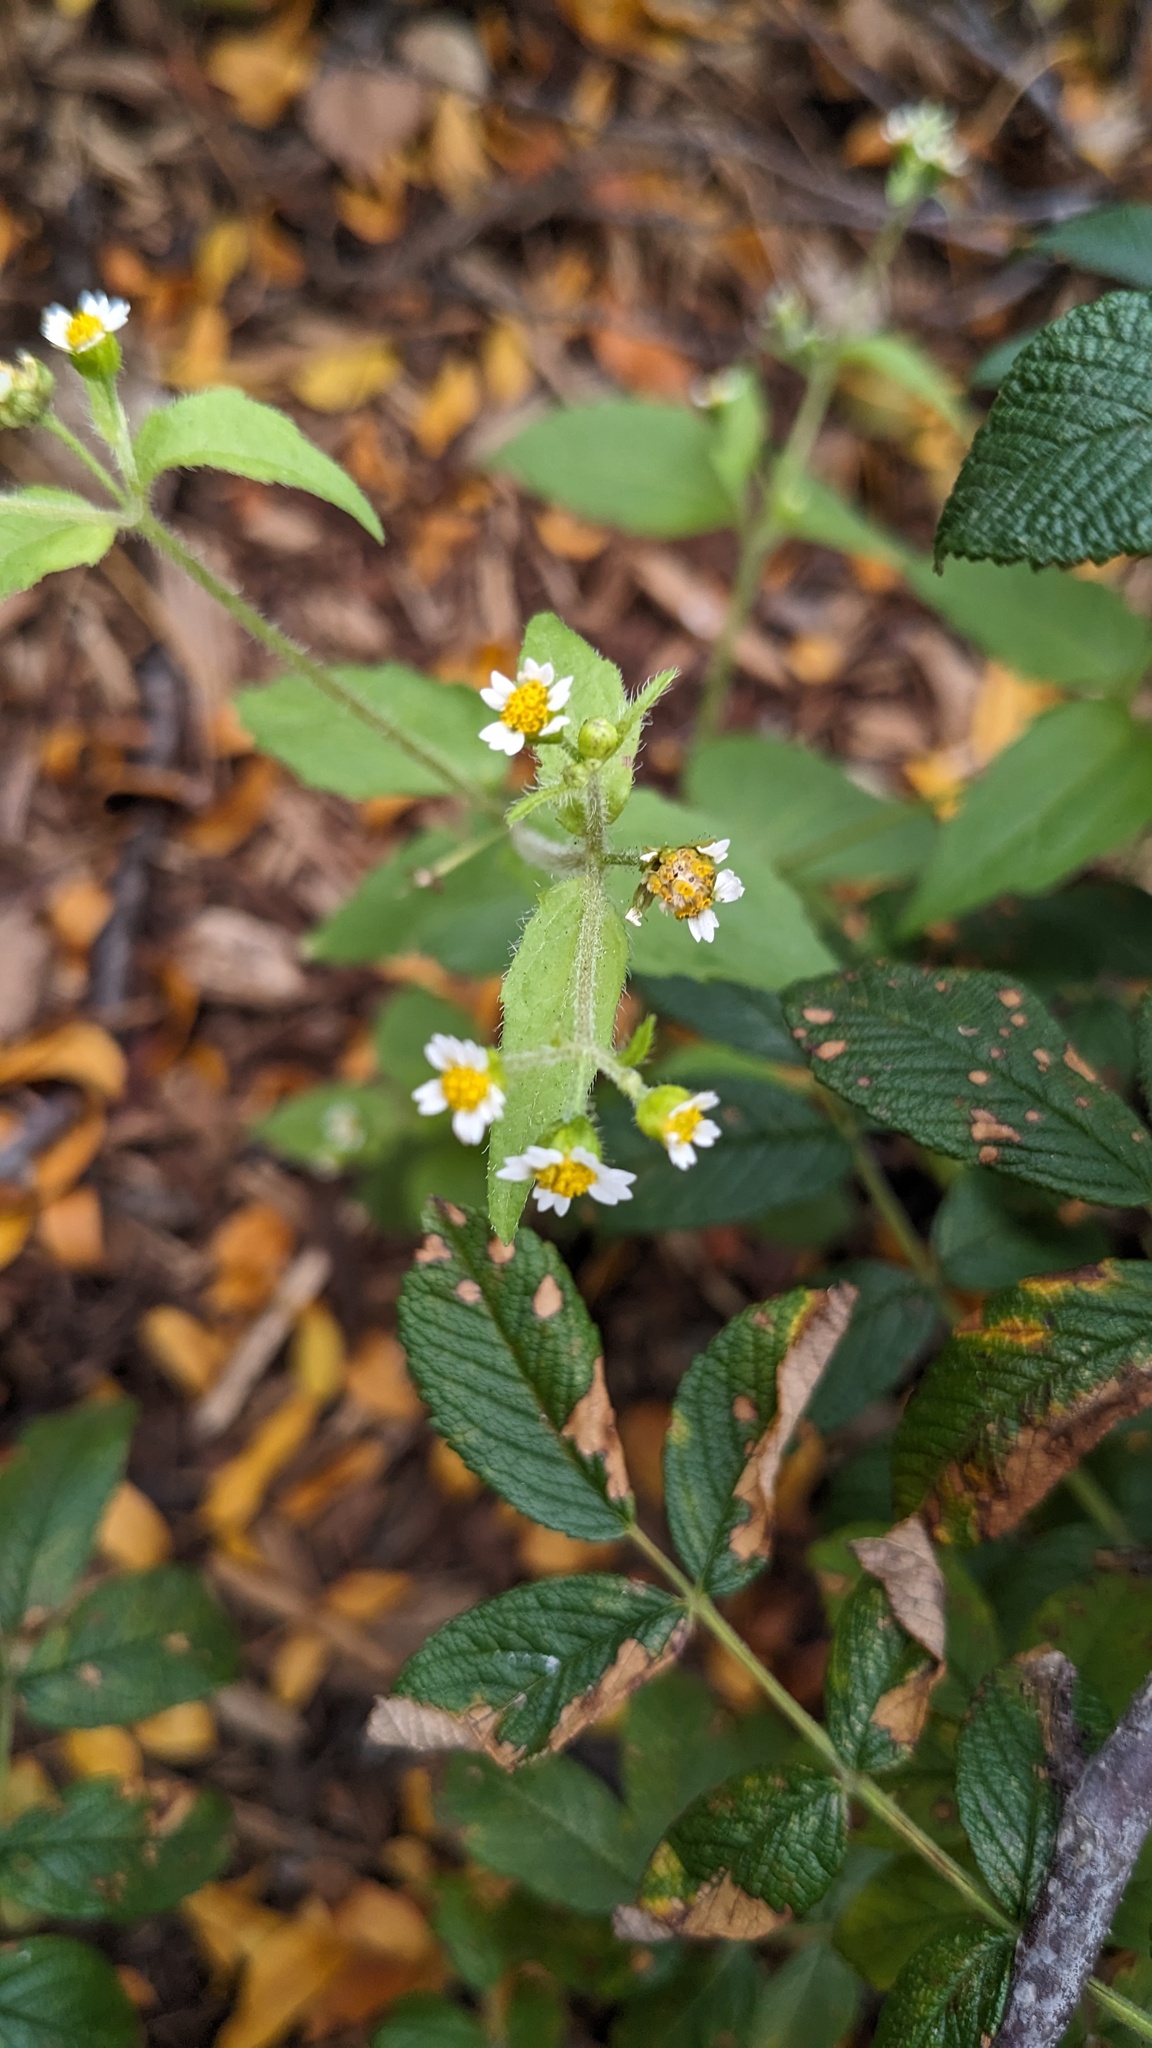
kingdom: Plantae
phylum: Tracheophyta
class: Magnoliopsida
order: Asterales
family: Asteraceae
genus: Galinsoga
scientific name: Galinsoga quadriradiata
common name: Shaggy soldier
